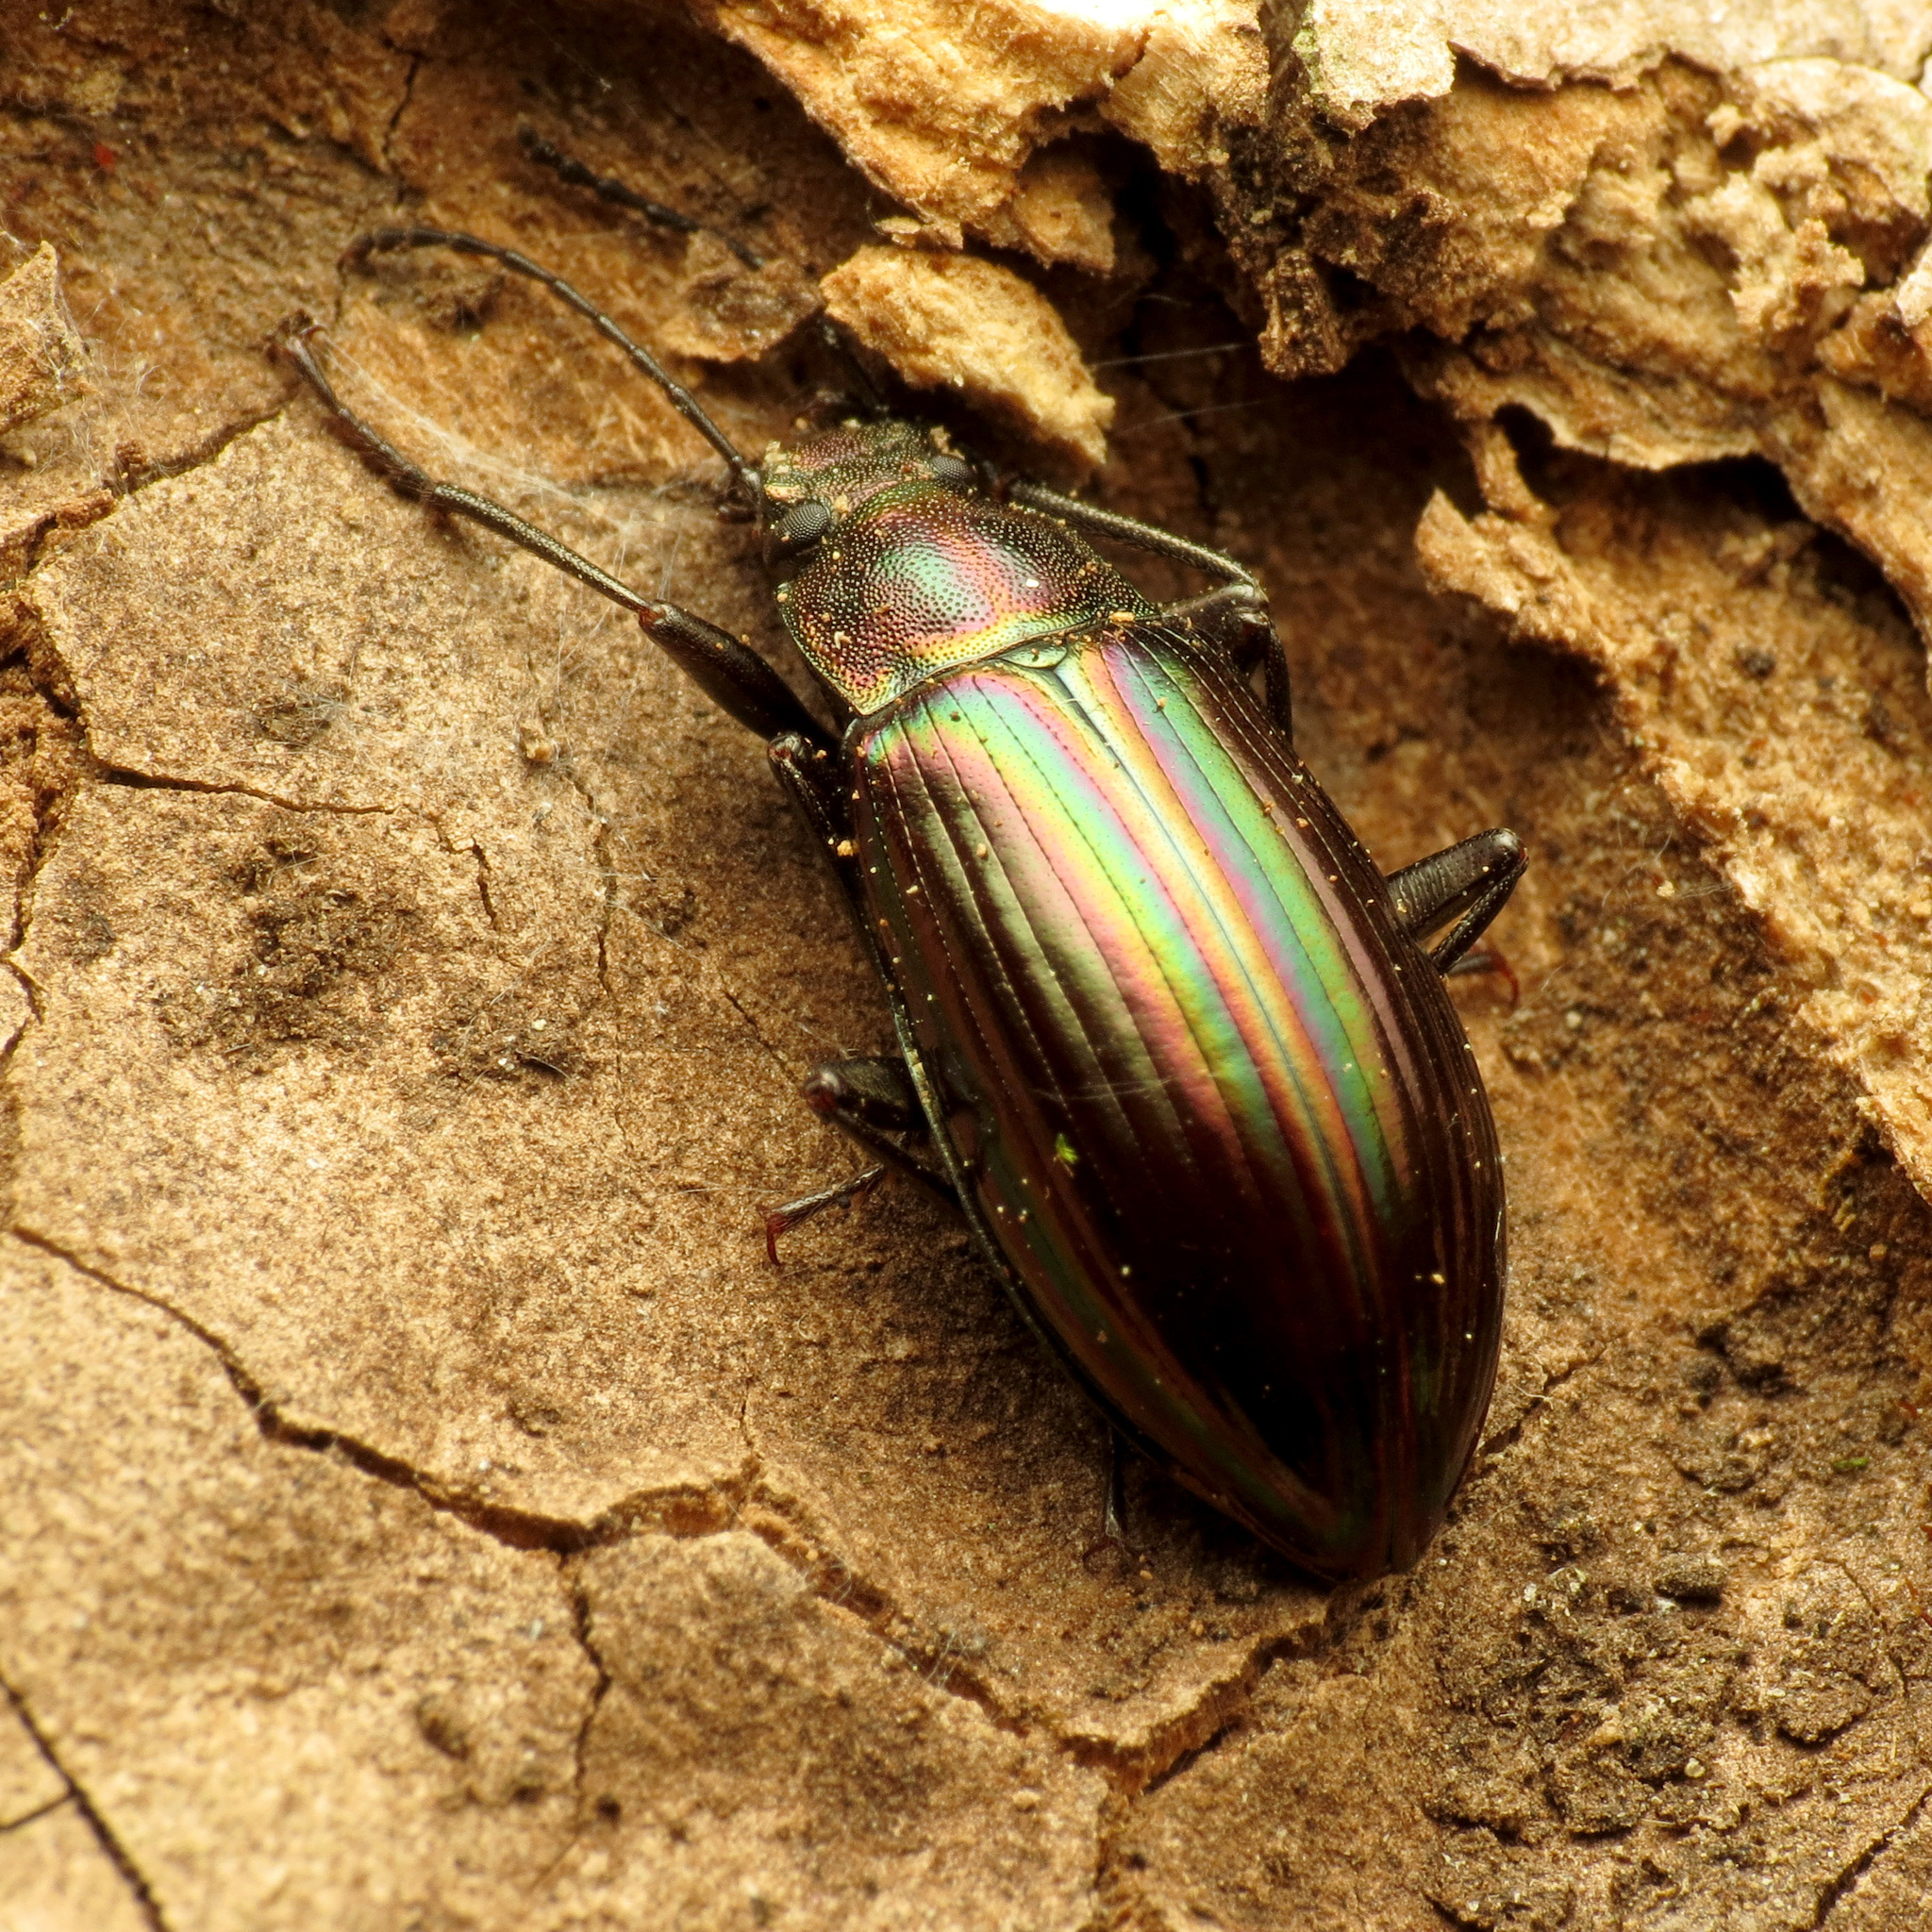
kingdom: Animalia
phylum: Arthropoda
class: Insecta
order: Coleoptera
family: Tenebrionidae
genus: Tarpela
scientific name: Tarpela micans
